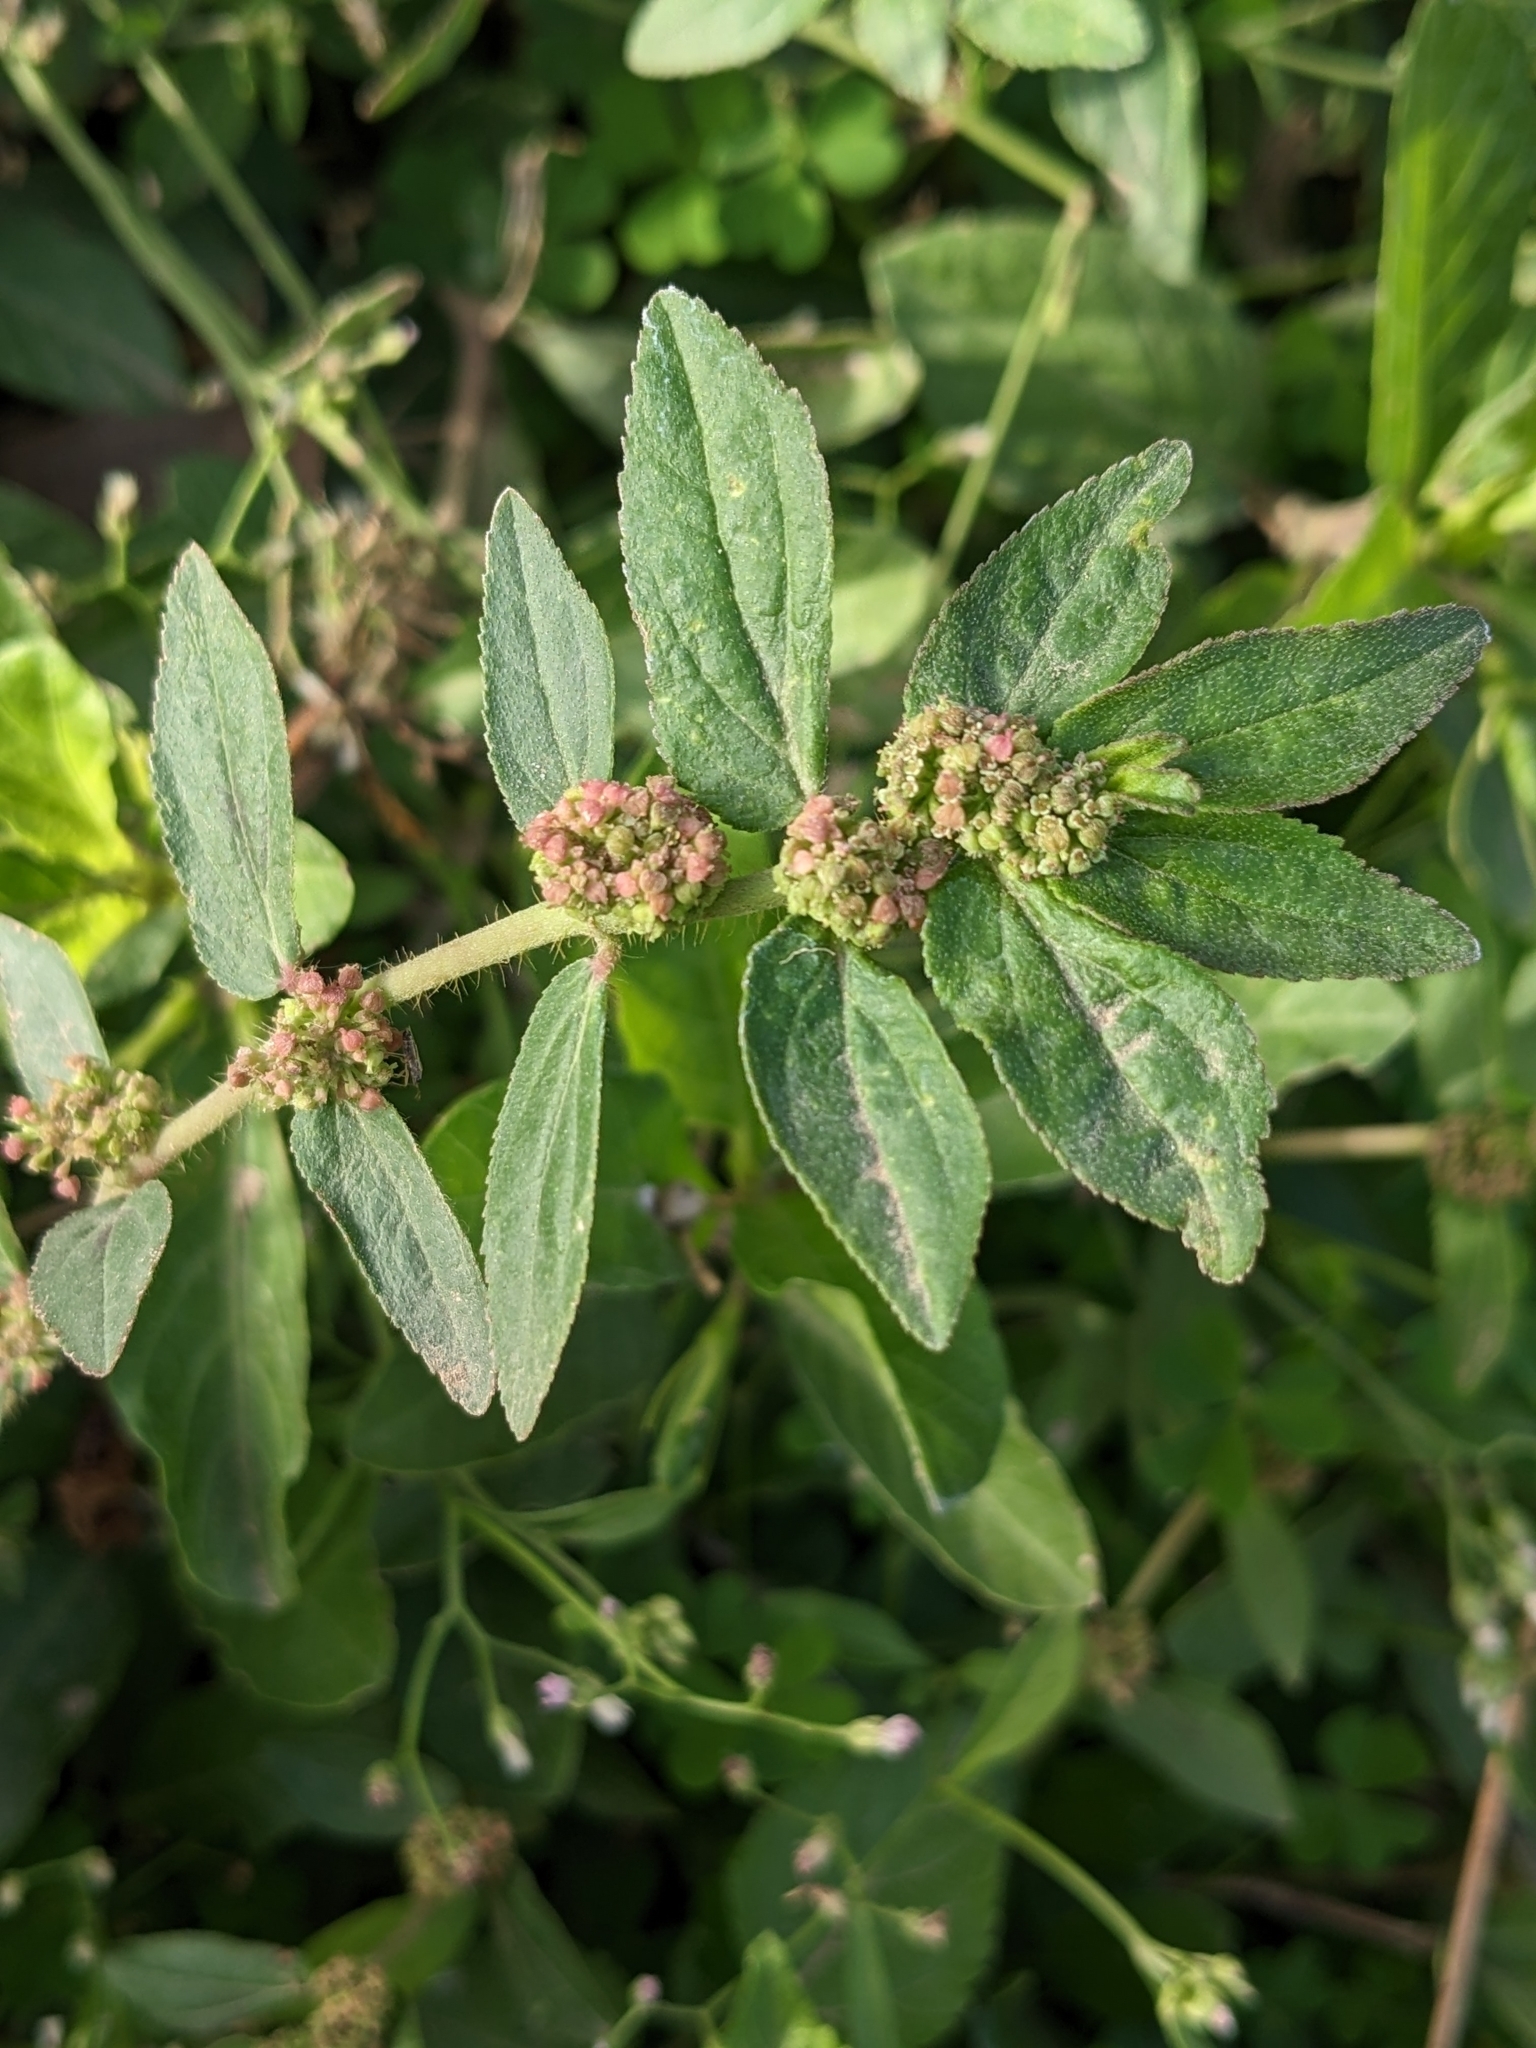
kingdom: Plantae
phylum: Tracheophyta
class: Magnoliopsida
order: Malpighiales
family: Euphorbiaceae
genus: Euphorbia
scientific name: Euphorbia hirta
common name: Pillpod sandmat
